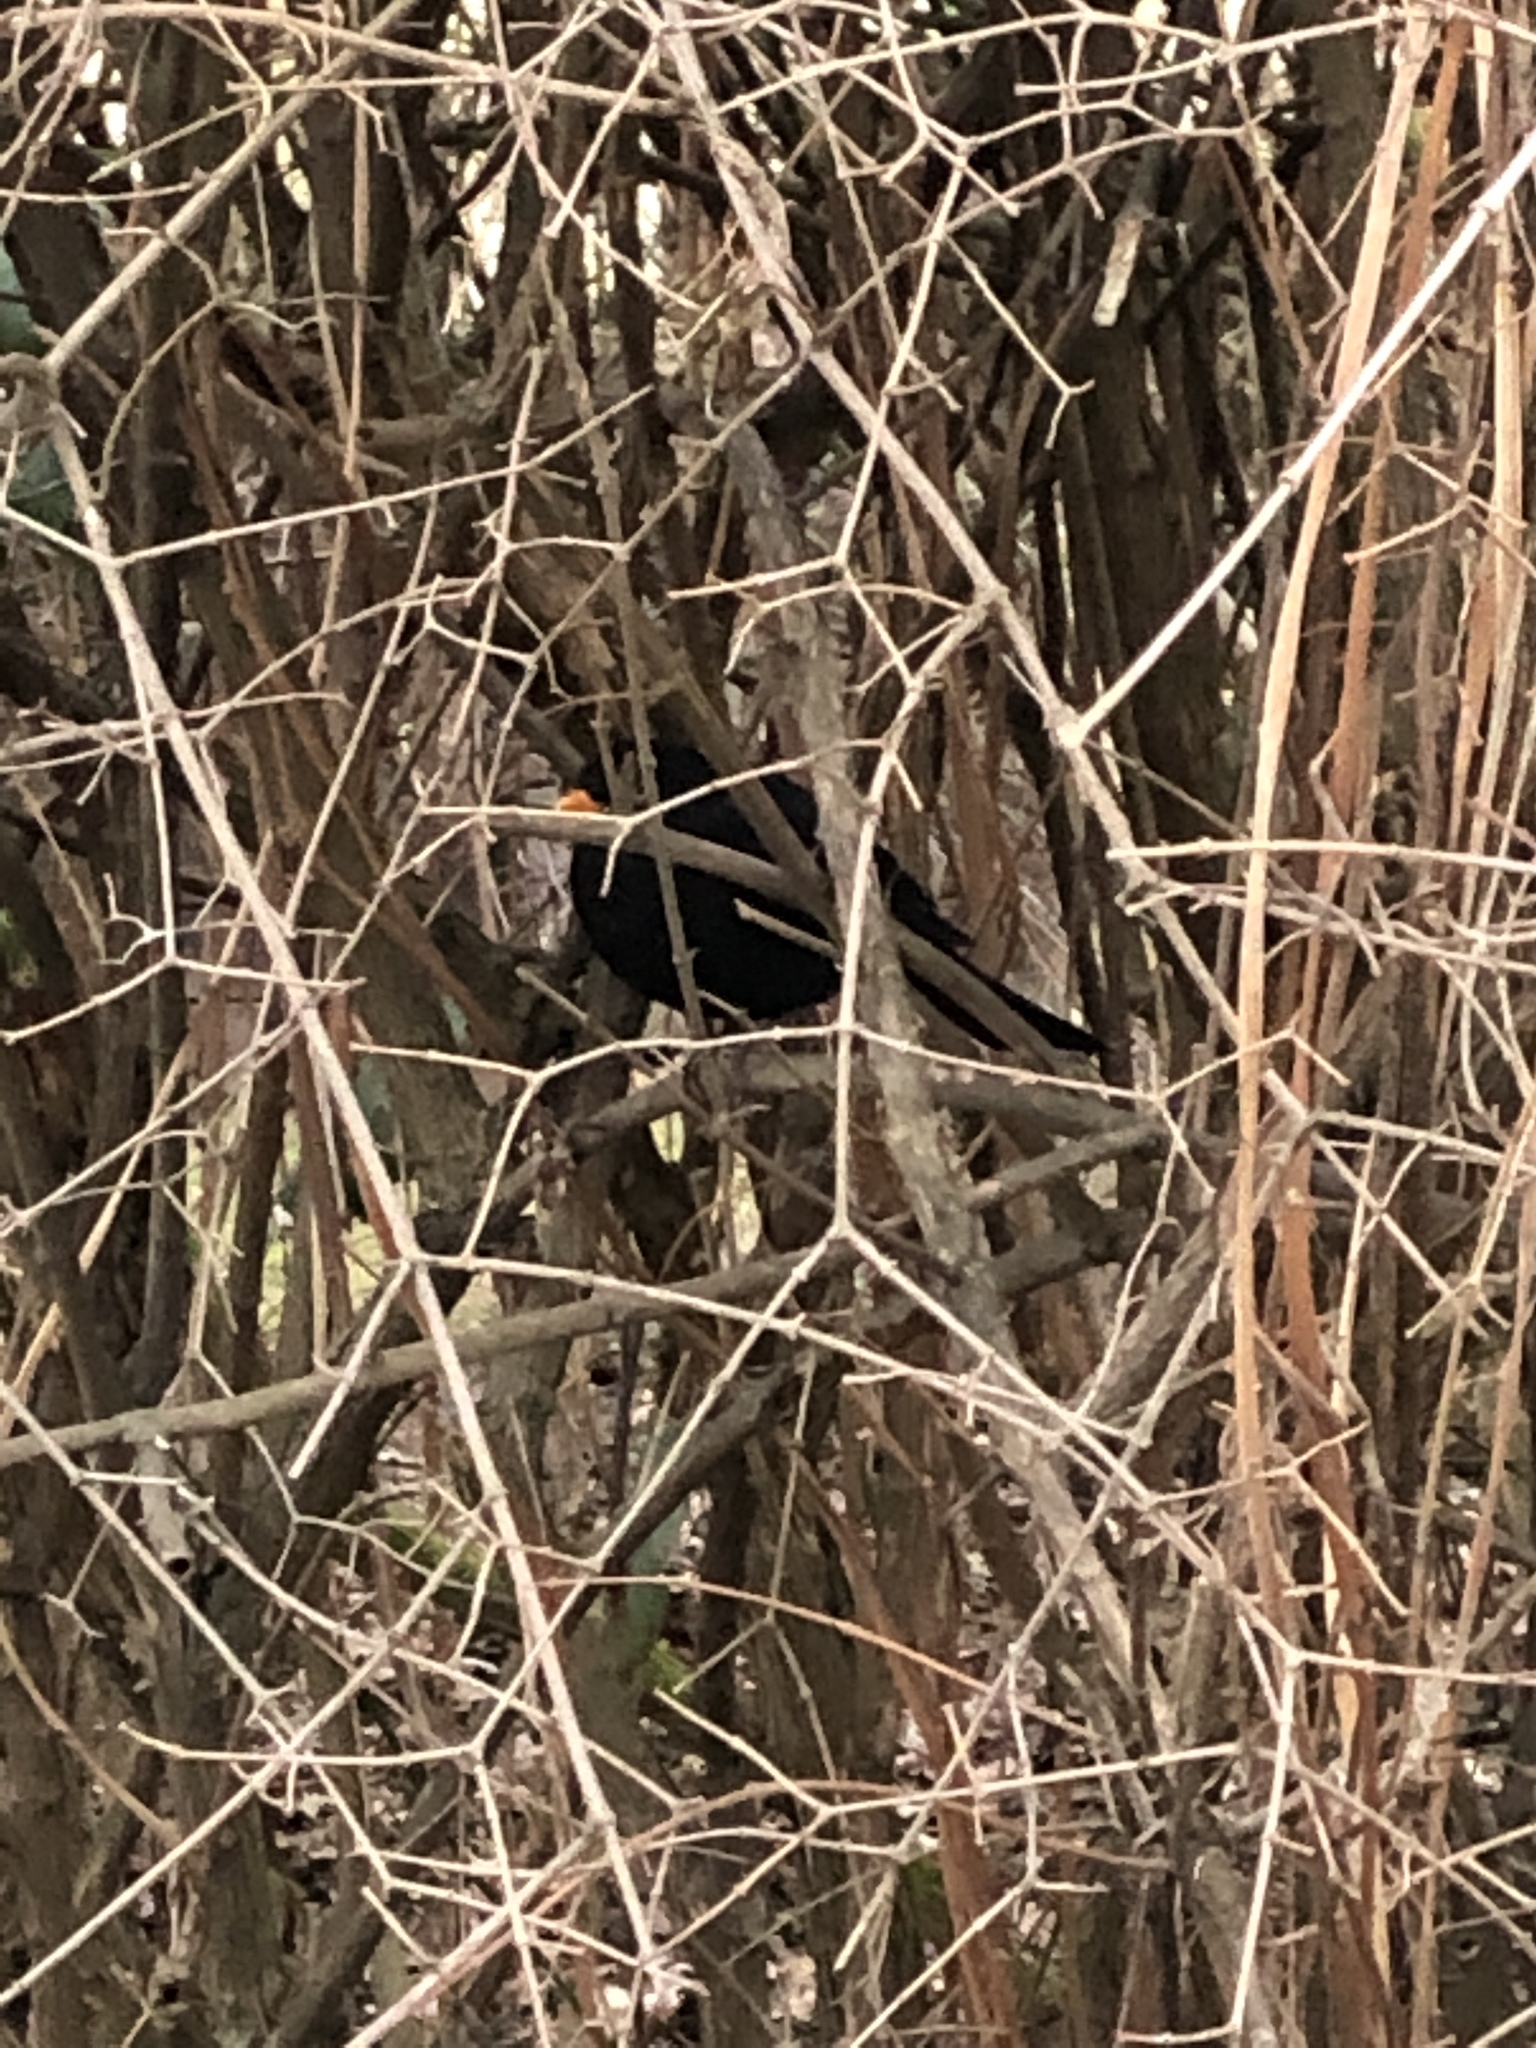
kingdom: Animalia
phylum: Chordata
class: Aves
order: Passeriformes
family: Turdidae
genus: Turdus
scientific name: Turdus merula
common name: Common blackbird
